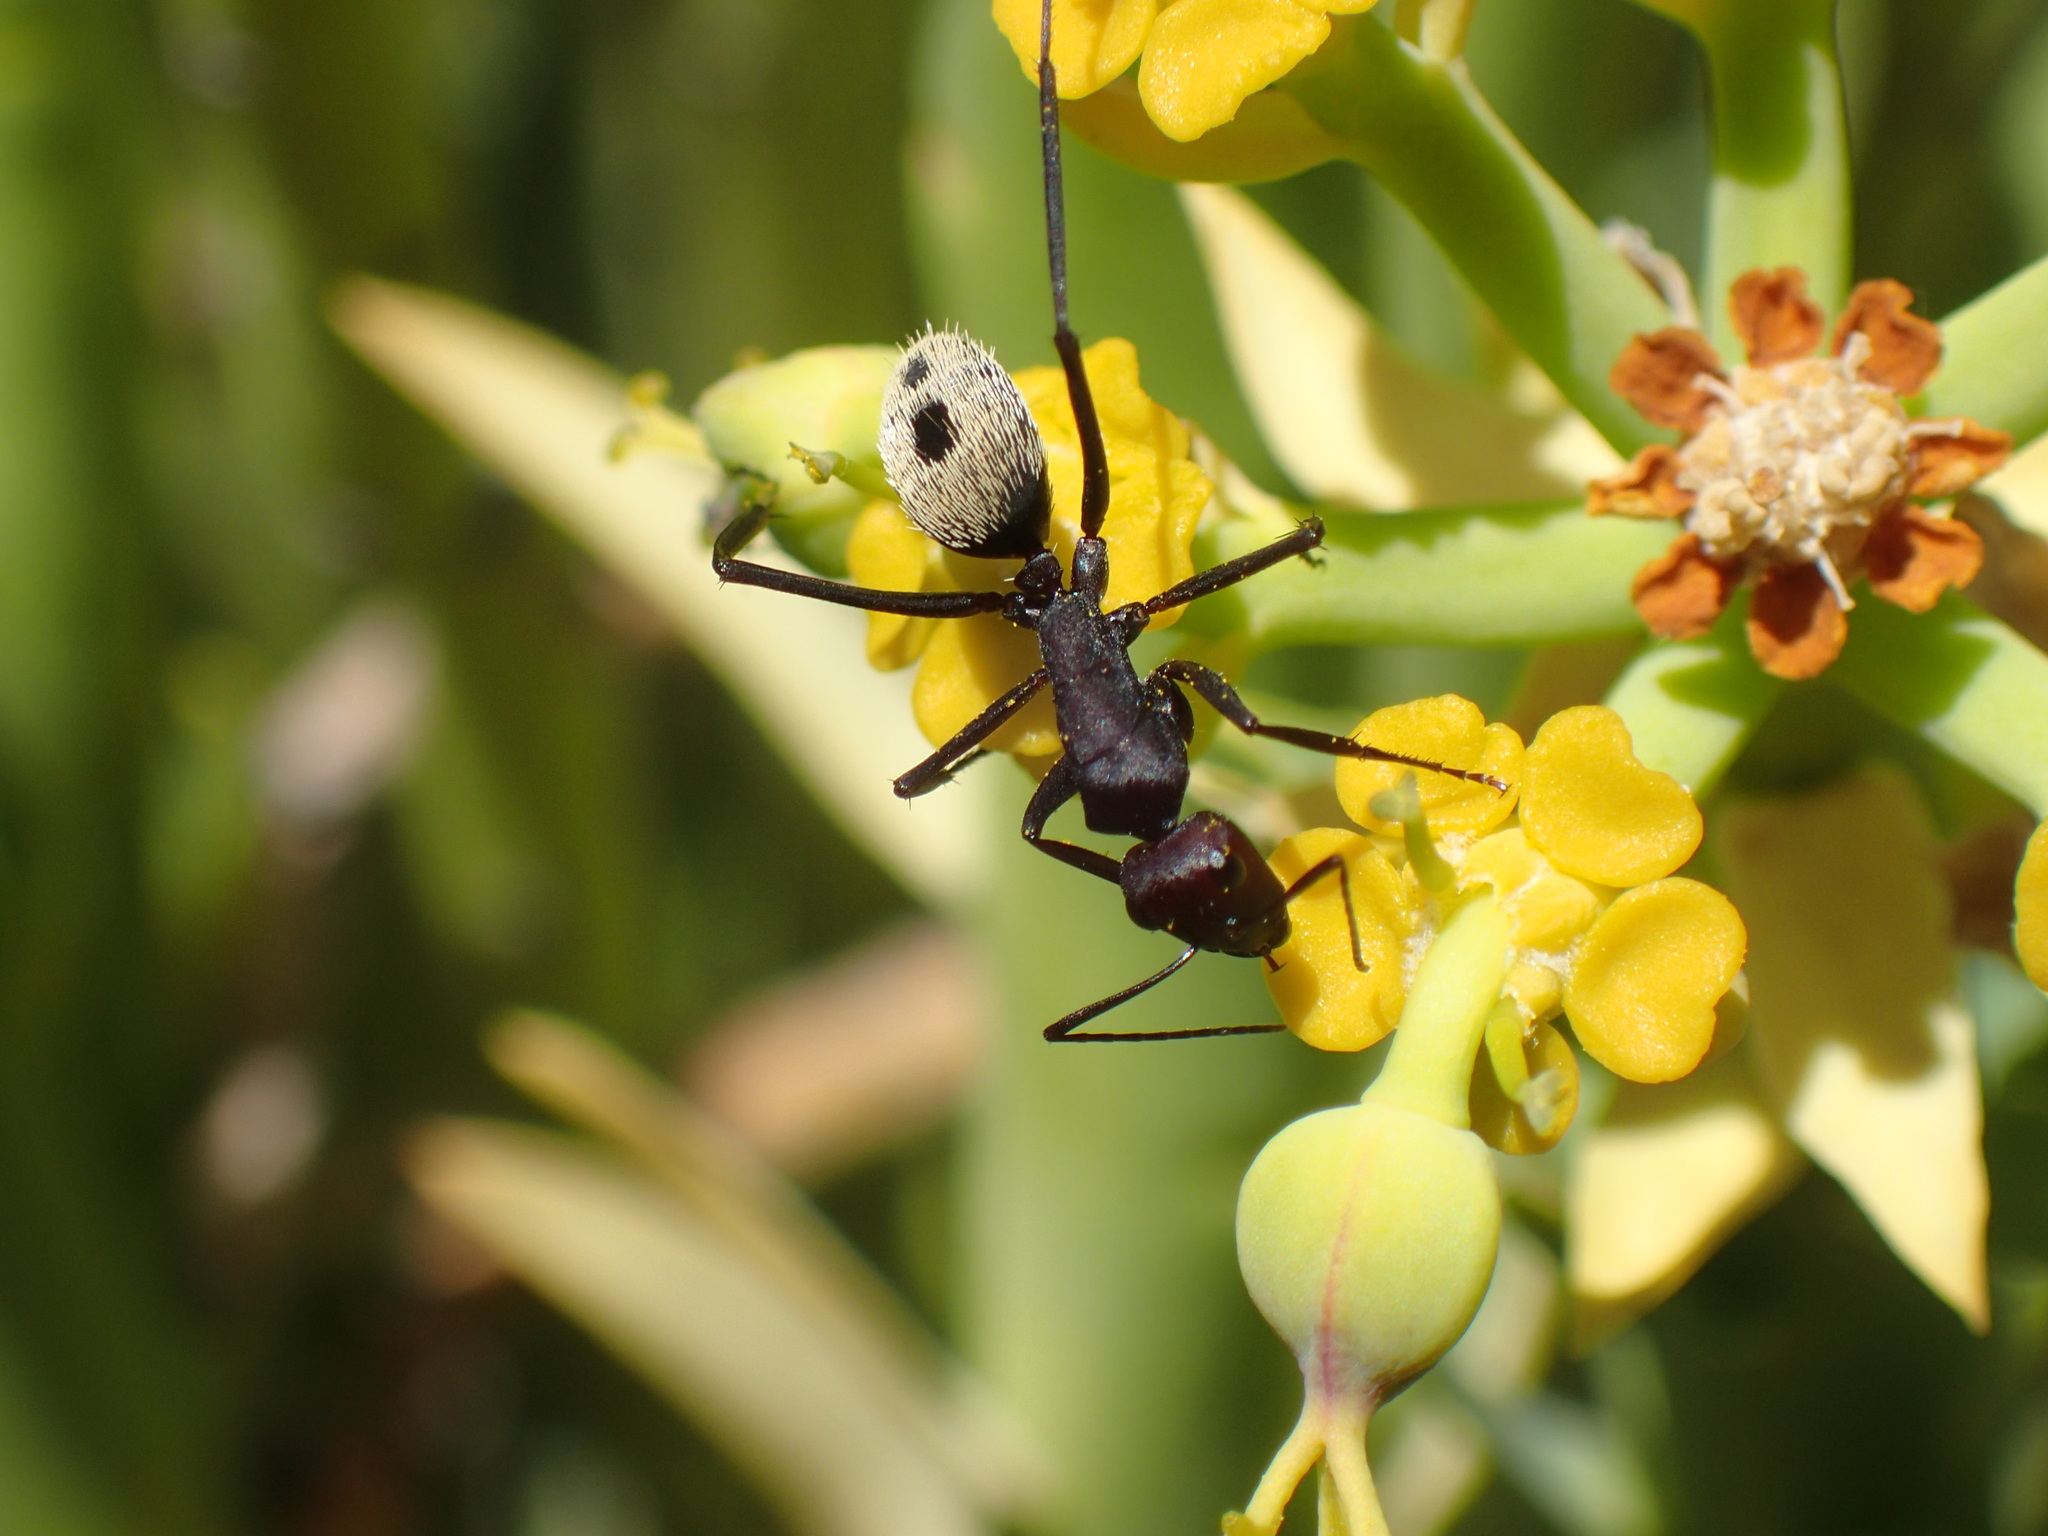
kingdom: Animalia
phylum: Arthropoda
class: Insecta
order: Hymenoptera
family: Formicidae
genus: Camponotus
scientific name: Camponotus storeatus
